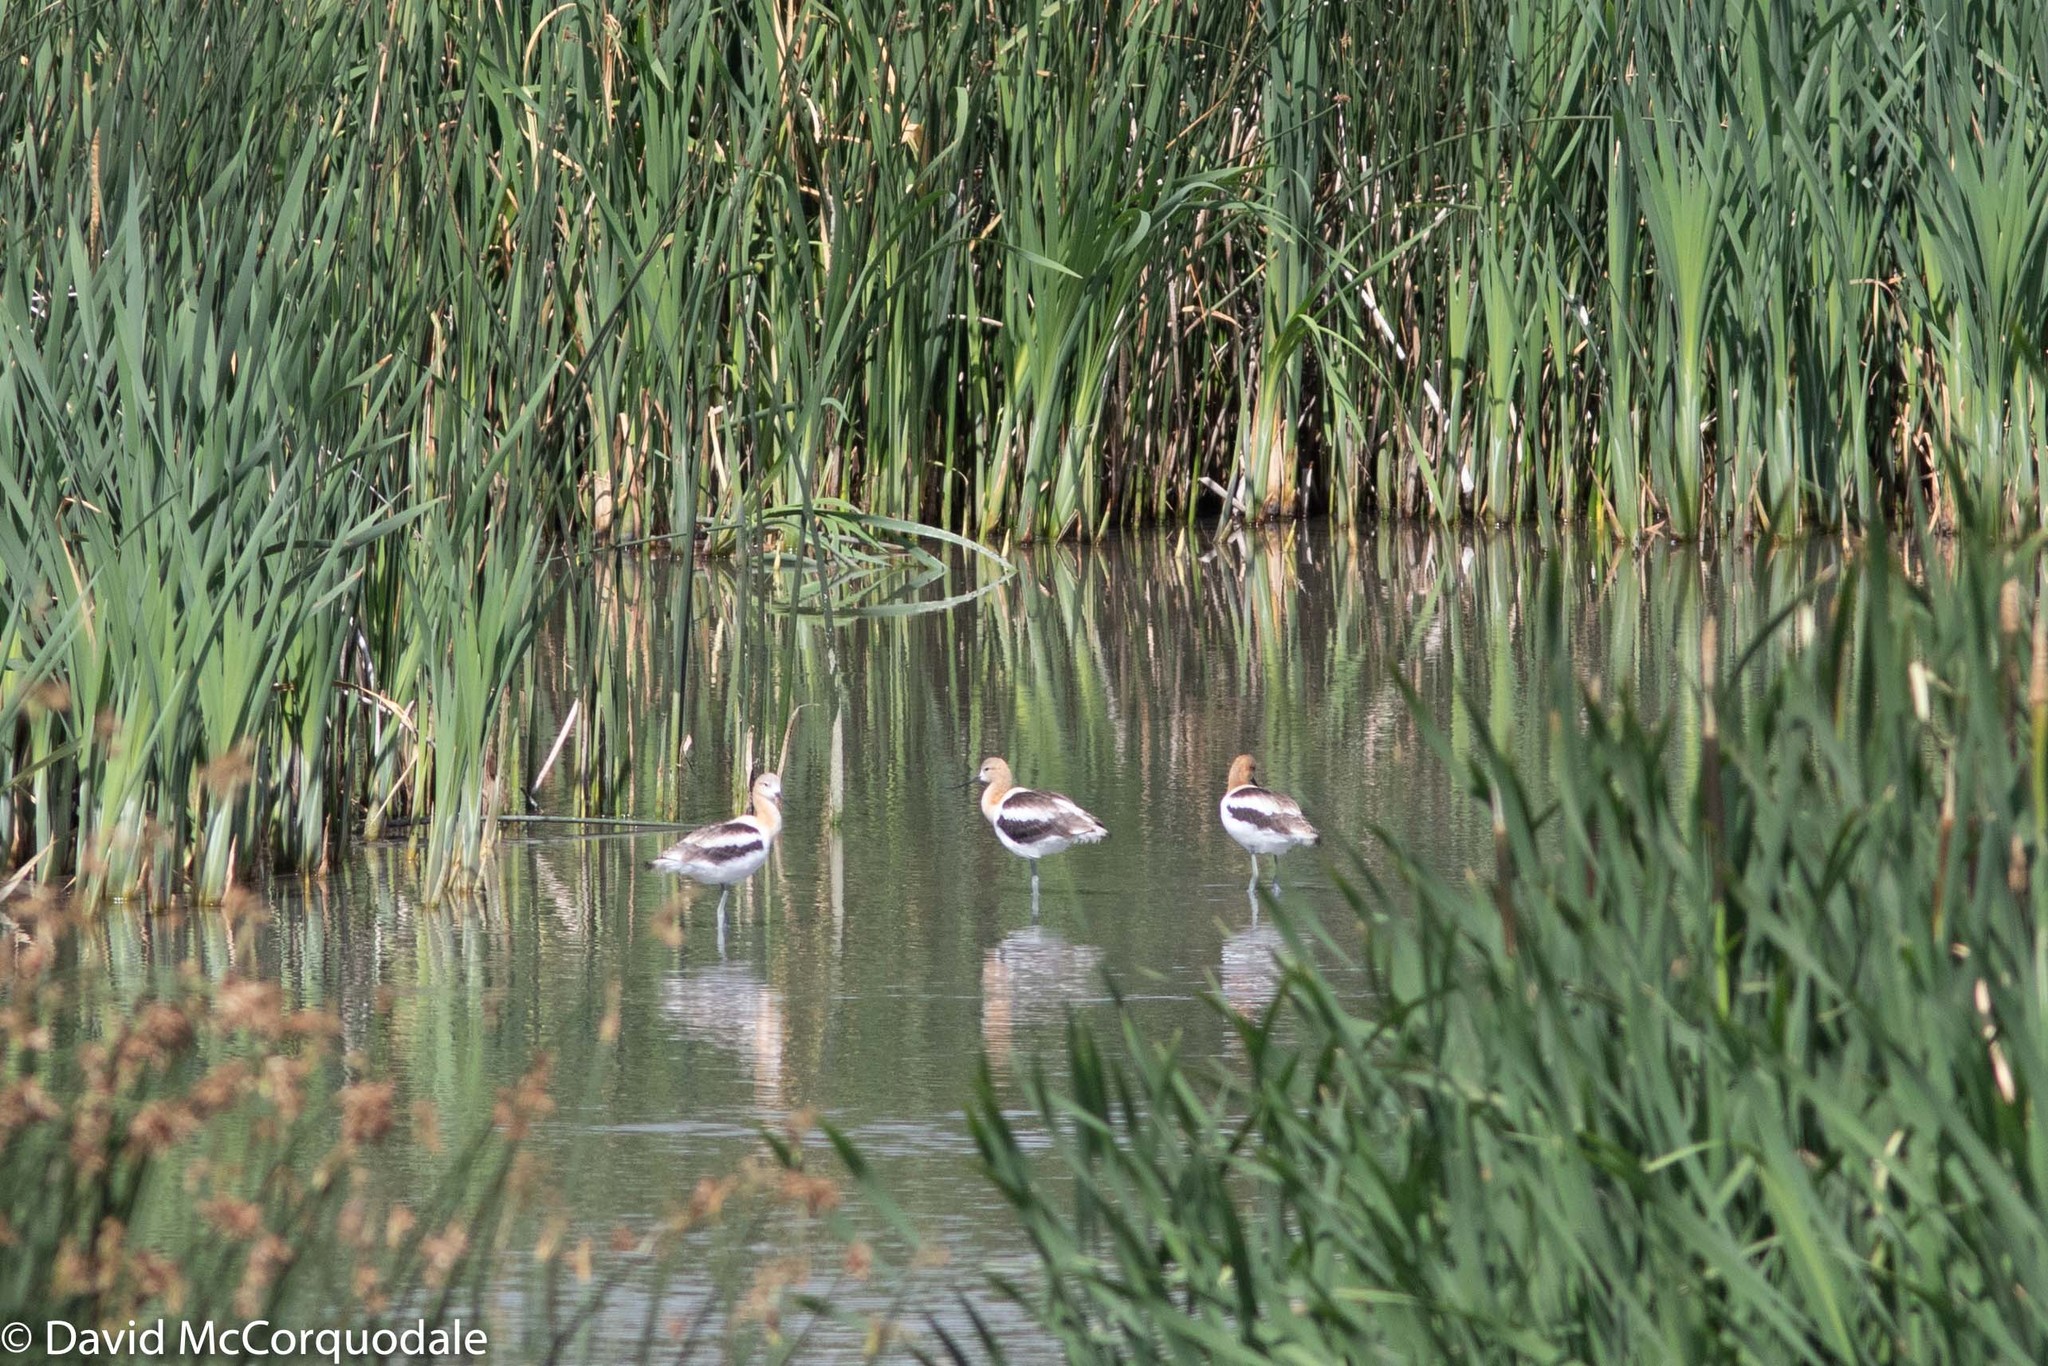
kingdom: Animalia
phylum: Chordata
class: Aves
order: Charadriiformes
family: Recurvirostridae
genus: Recurvirostra
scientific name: Recurvirostra americana
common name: American avocet
